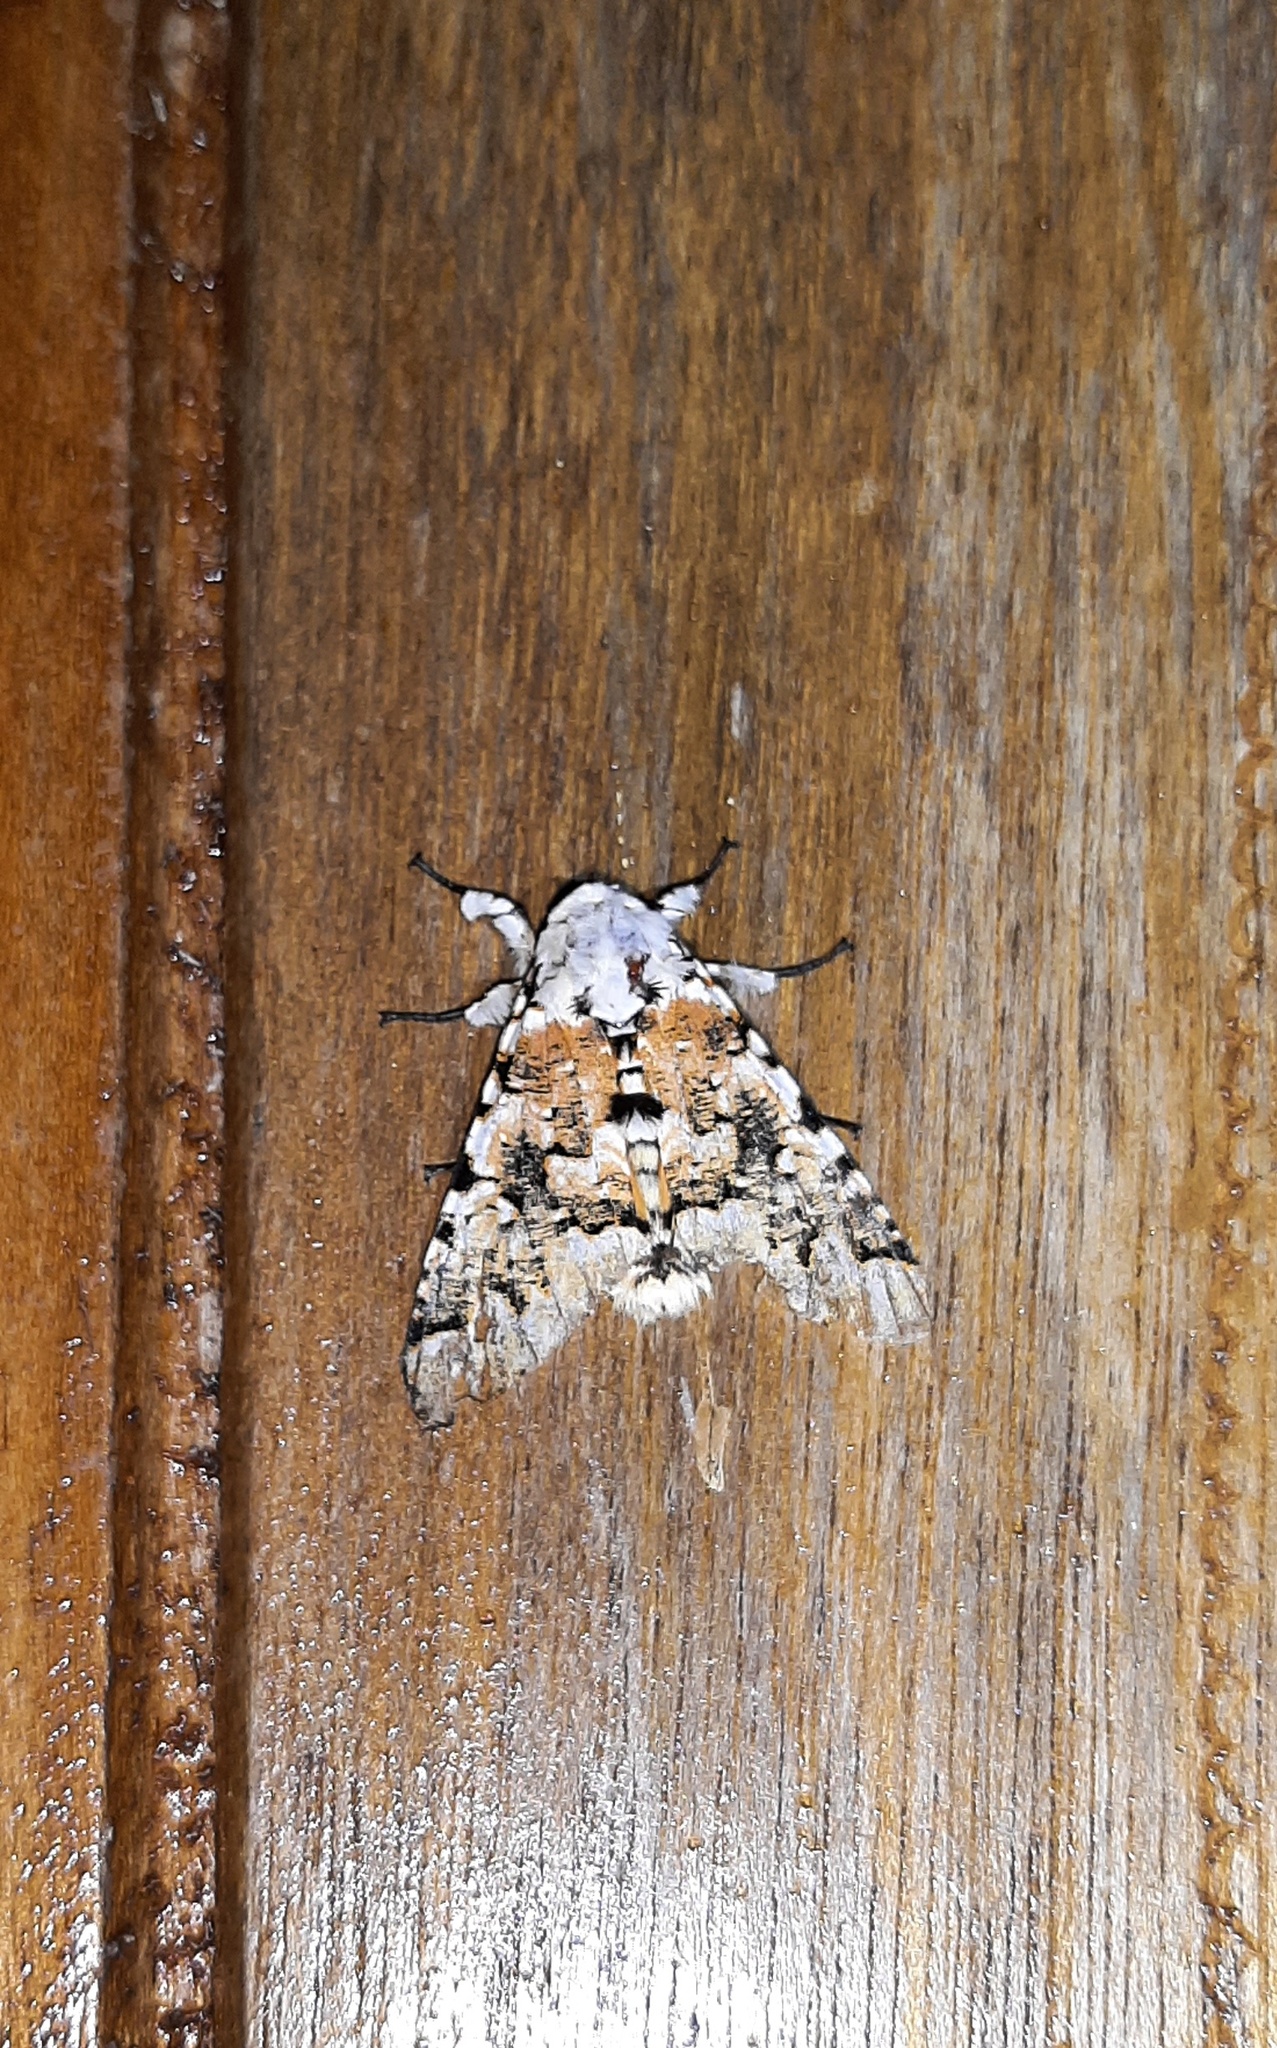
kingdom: Animalia
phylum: Arthropoda
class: Insecta
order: Lepidoptera
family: Noctuidae
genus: Bathyra
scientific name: Bathyra sagata
